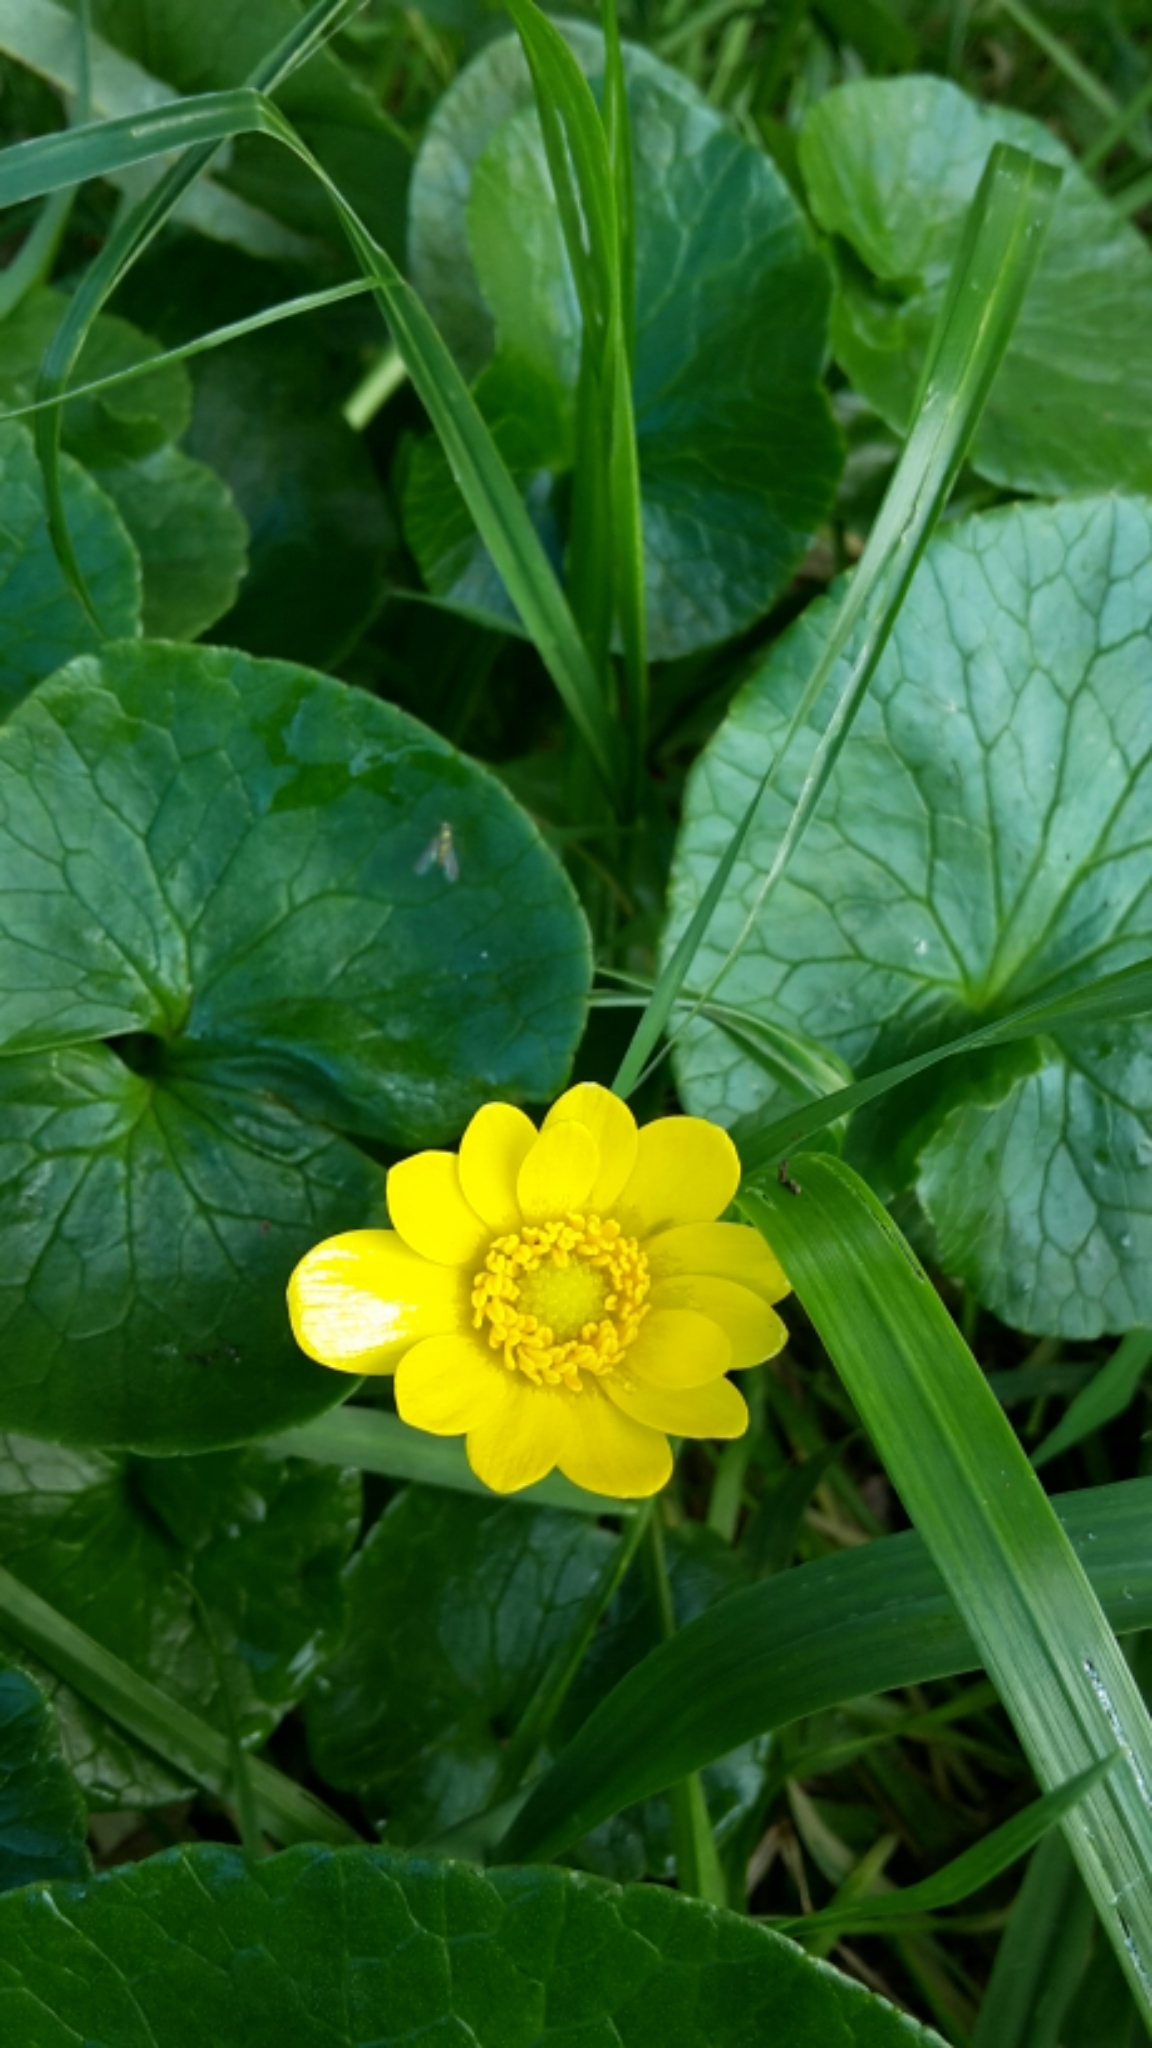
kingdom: Plantae
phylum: Tracheophyta
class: Magnoliopsida
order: Ranunculales
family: Ranunculaceae
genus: Ficaria
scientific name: Ficaria grandiflora
